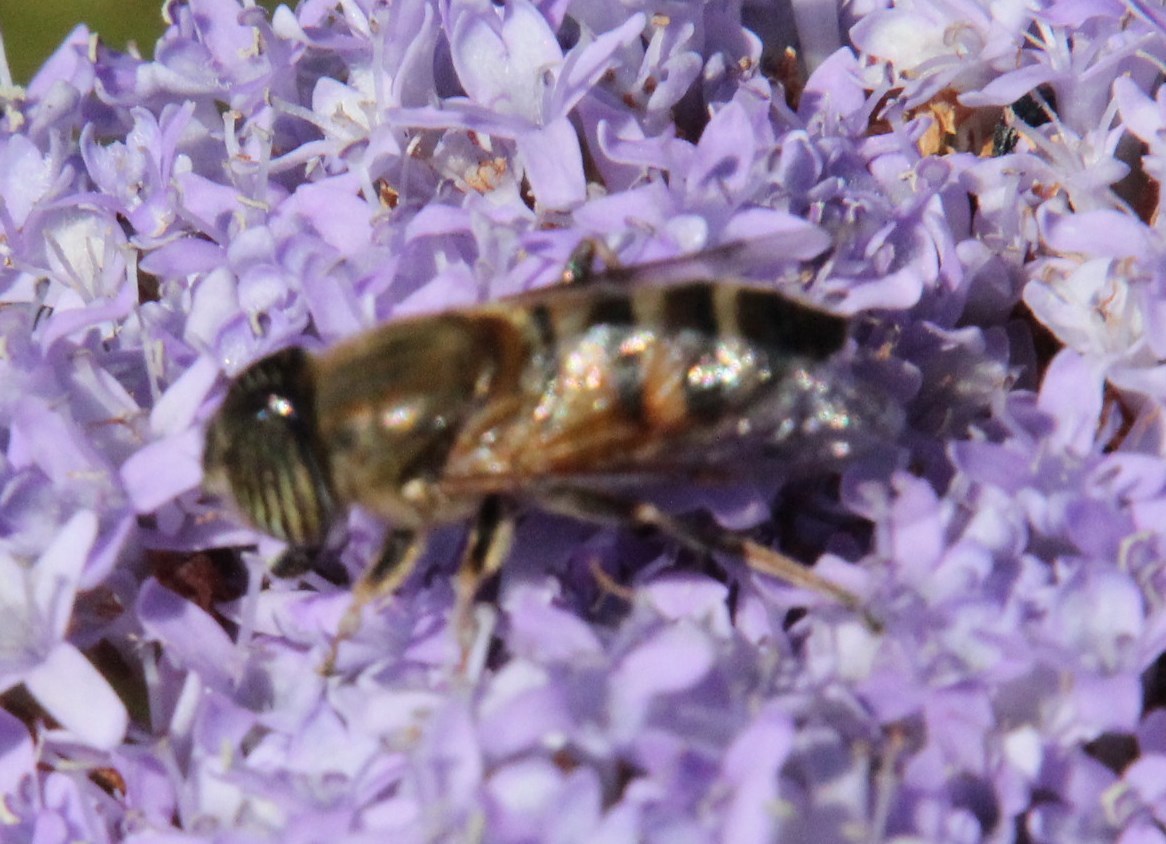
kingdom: Animalia
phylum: Arthropoda
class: Insecta
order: Diptera
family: Syrphidae
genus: Eristalinus
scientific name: Eristalinus barclayi
